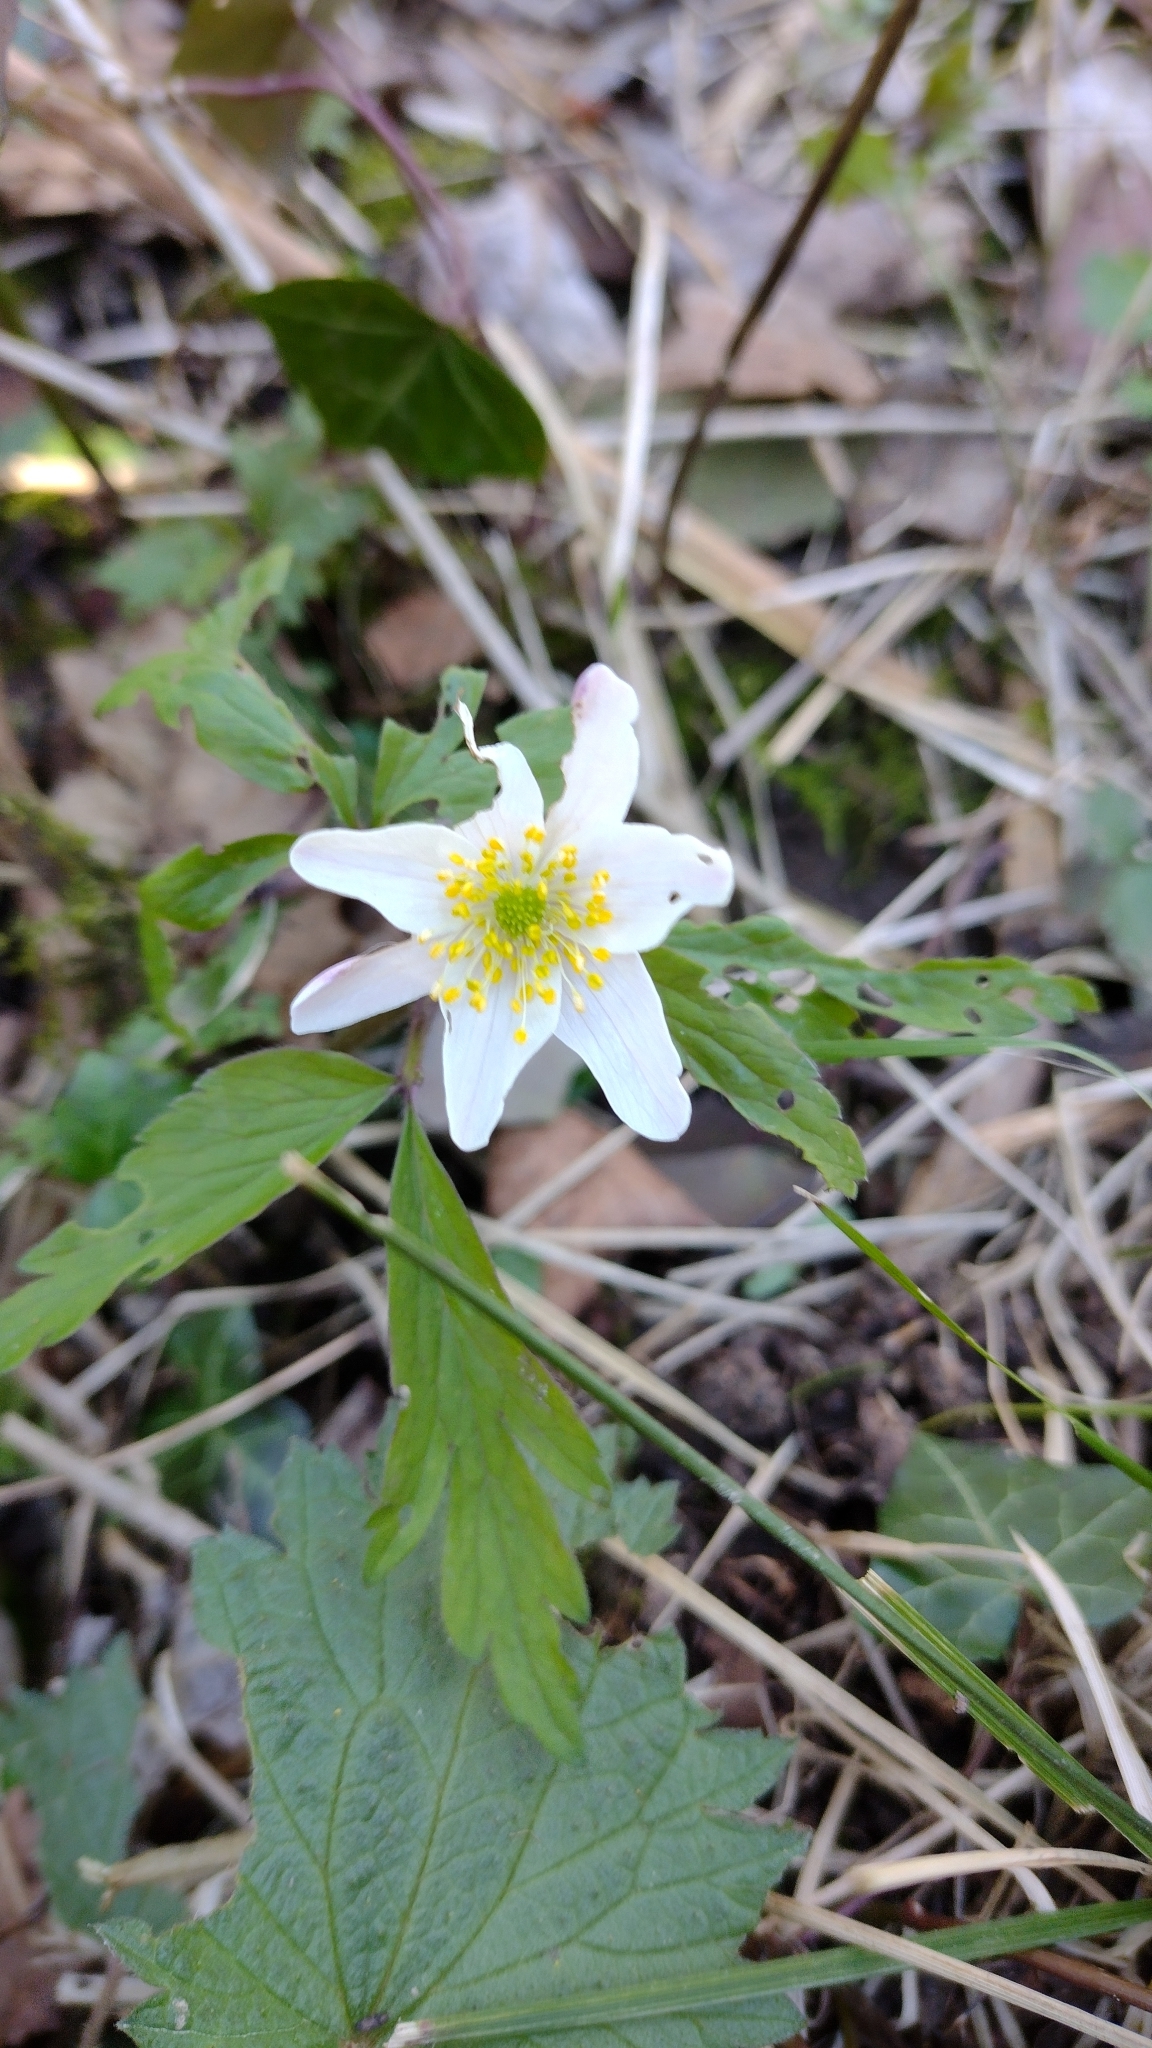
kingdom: Plantae
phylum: Tracheophyta
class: Magnoliopsida
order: Ranunculales
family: Ranunculaceae
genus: Anemone
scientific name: Anemone nemorosa
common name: Wood anemone
